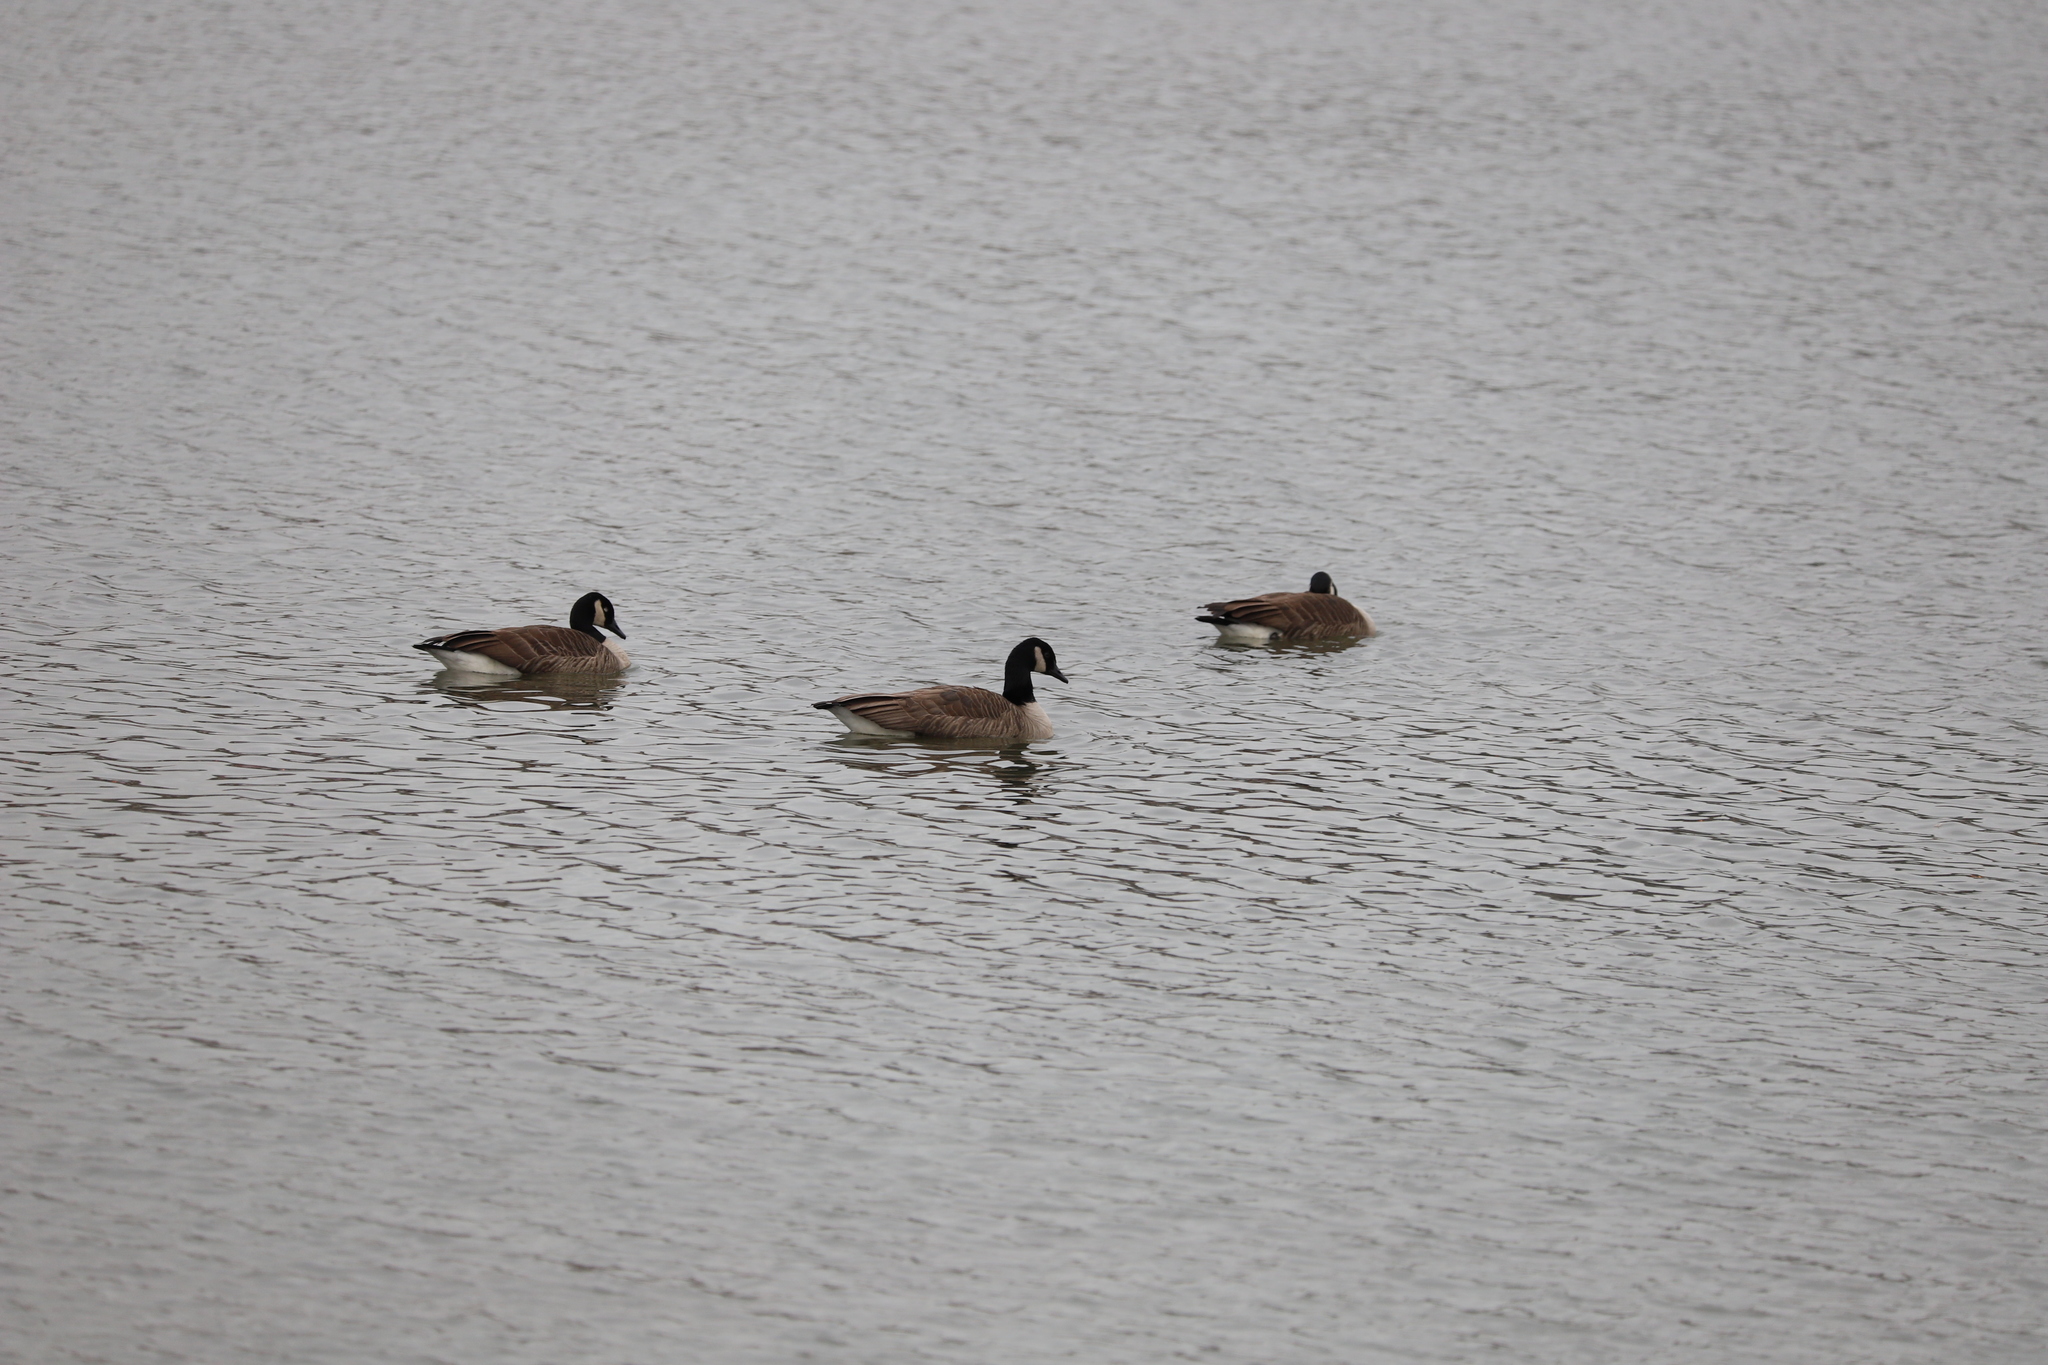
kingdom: Animalia
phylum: Chordata
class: Aves
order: Anseriformes
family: Anatidae
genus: Branta
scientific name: Branta canadensis
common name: Canada goose
